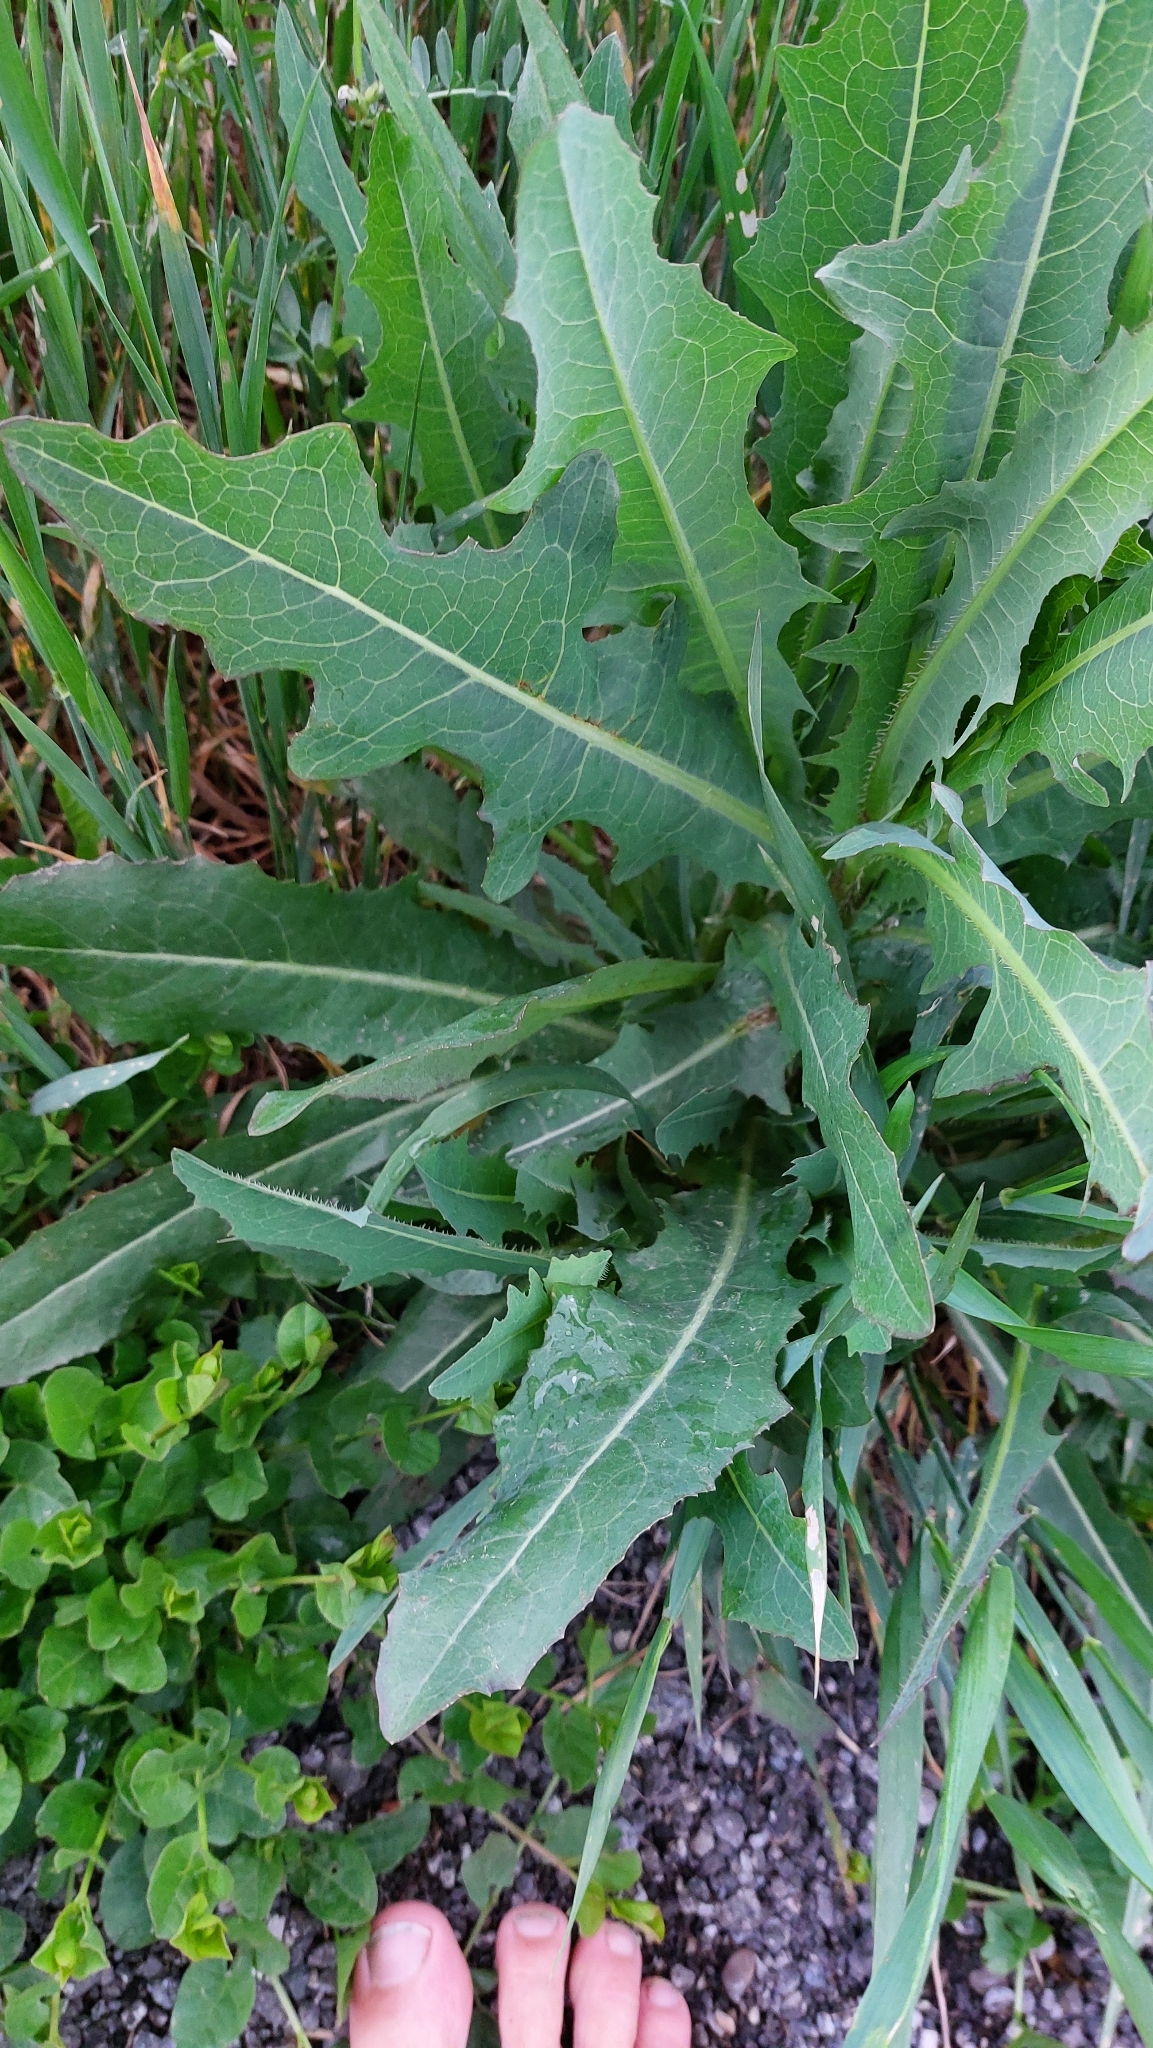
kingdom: Plantae
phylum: Tracheophyta
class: Magnoliopsida
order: Asterales
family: Asteraceae
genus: Lactuca
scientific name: Lactuca serriola
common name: Prickly lettuce
